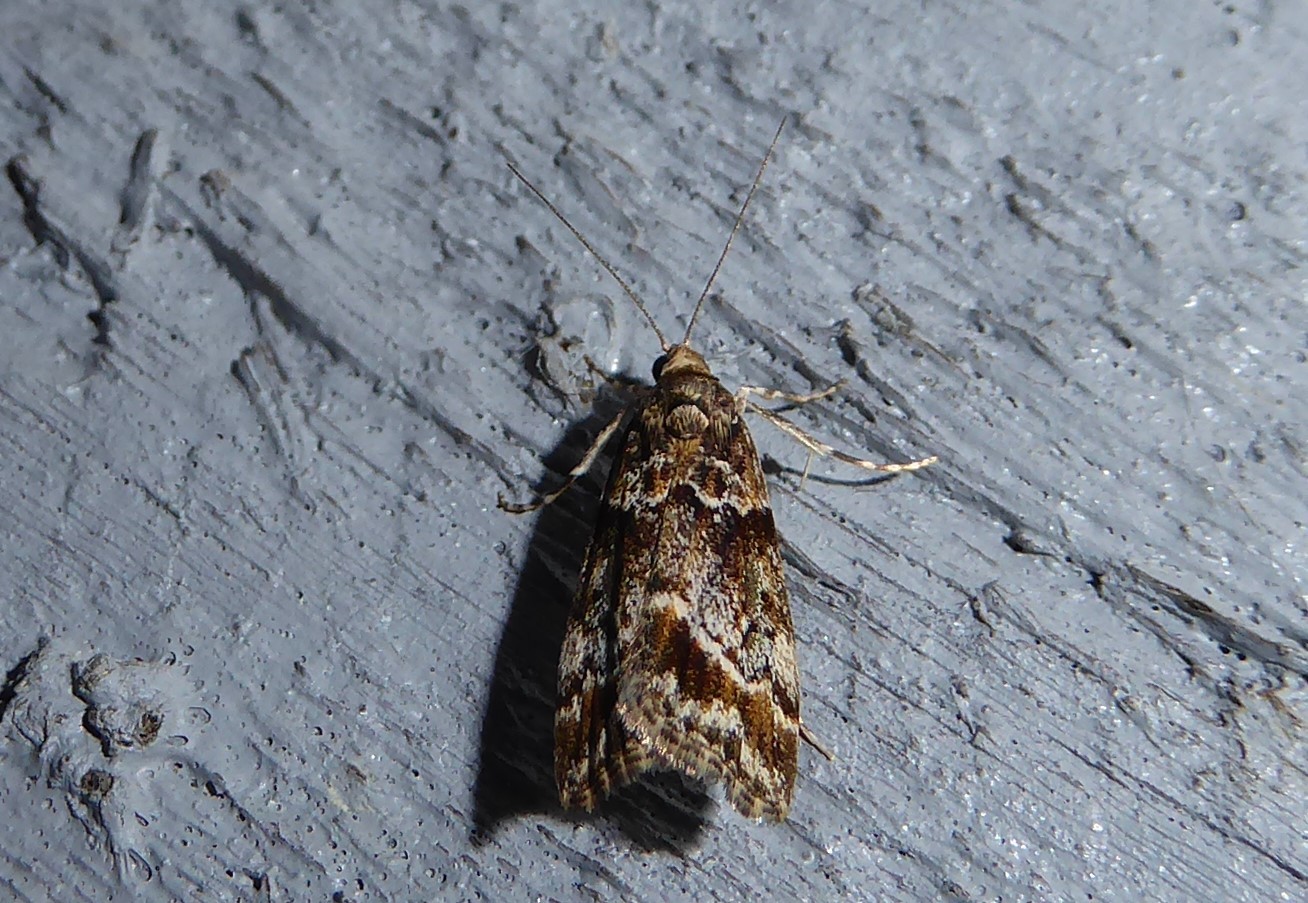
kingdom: Animalia
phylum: Arthropoda
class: Insecta
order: Lepidoptera
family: Crambidae
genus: Eudonia
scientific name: Eudonia legnota
